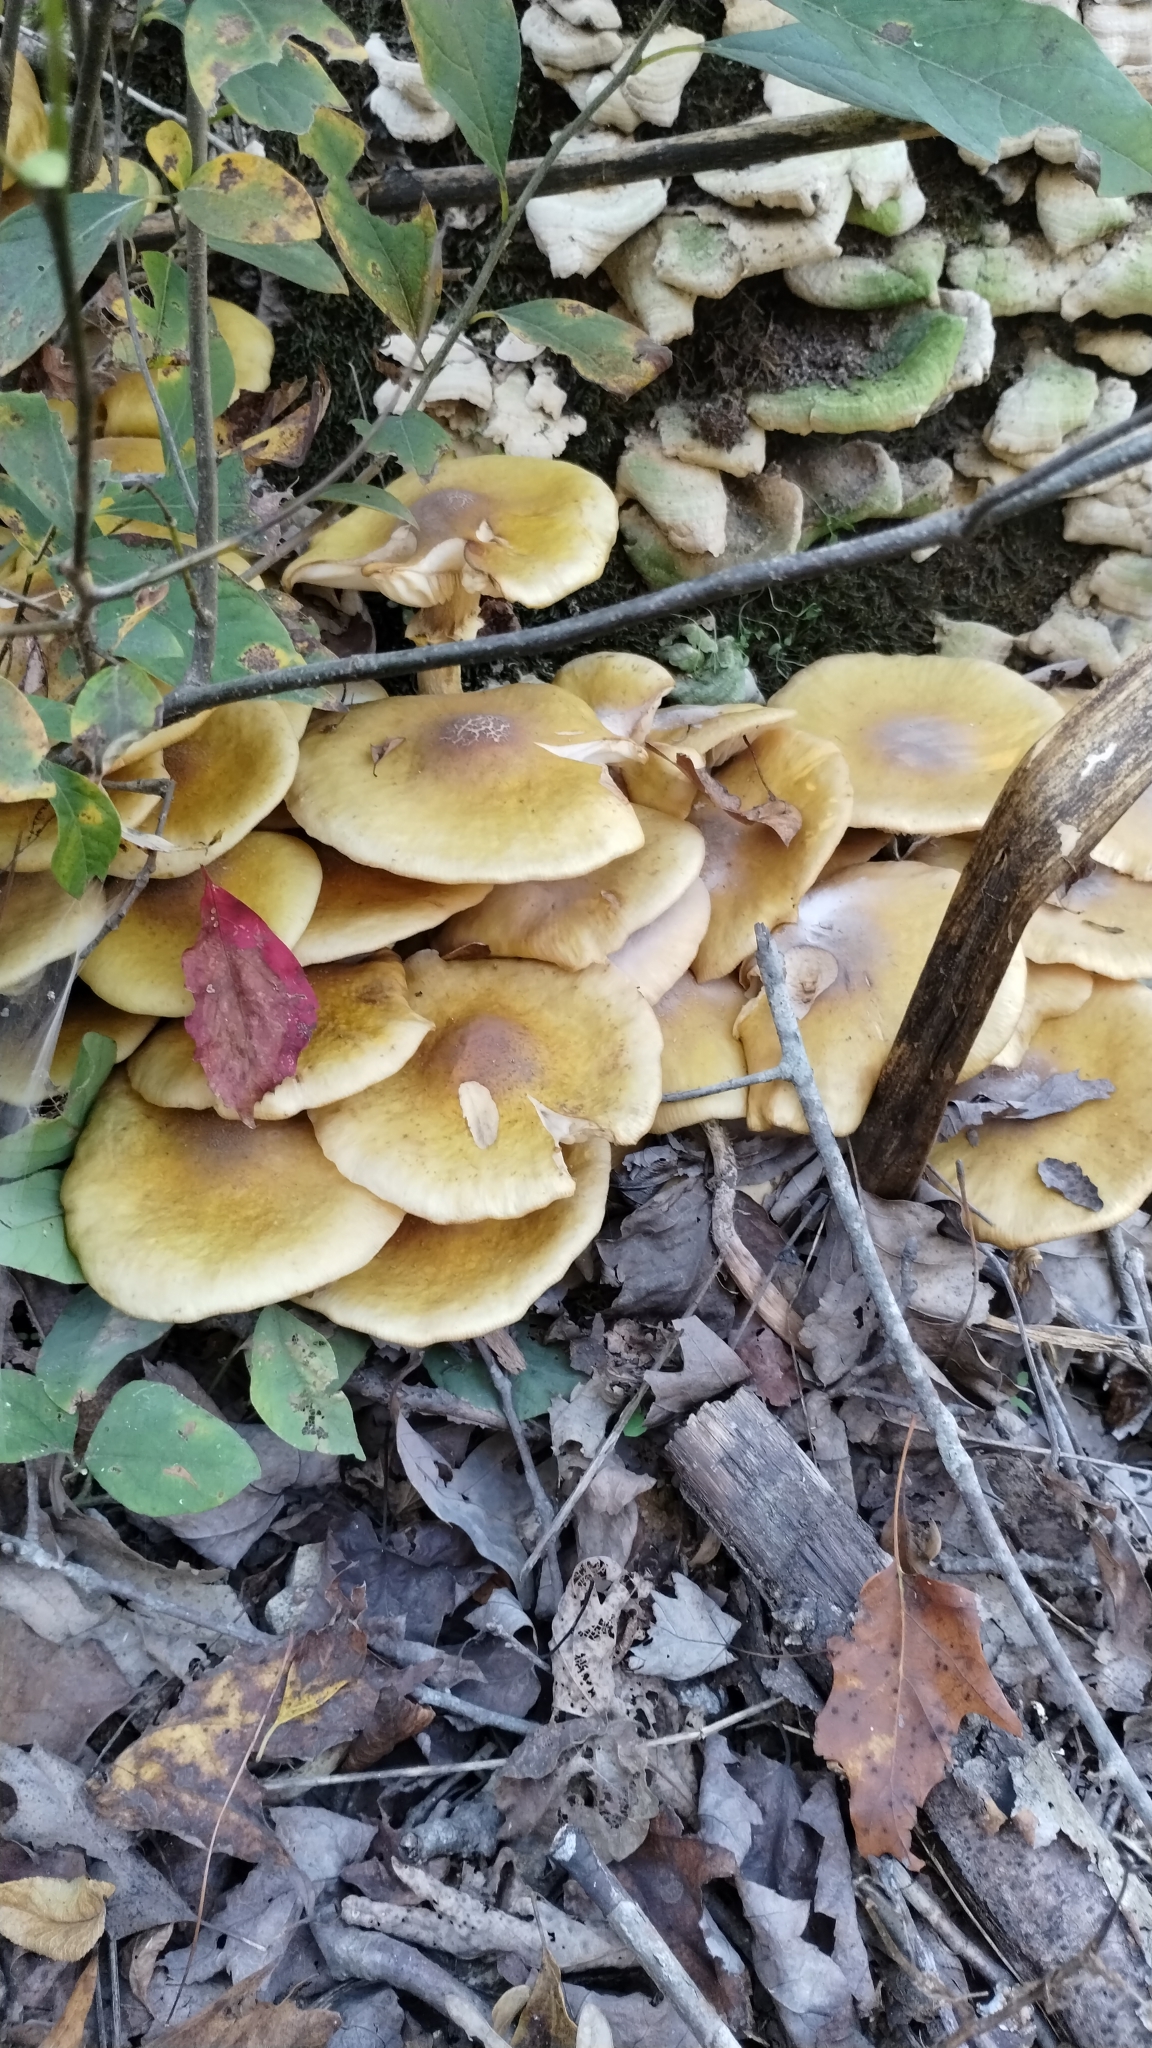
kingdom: Fungi
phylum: Basidiomycota
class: Agaricomycetes
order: Agaricales
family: Physalacriaceae
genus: Armillaria
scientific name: Armillaria mellea
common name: Honey fungus
